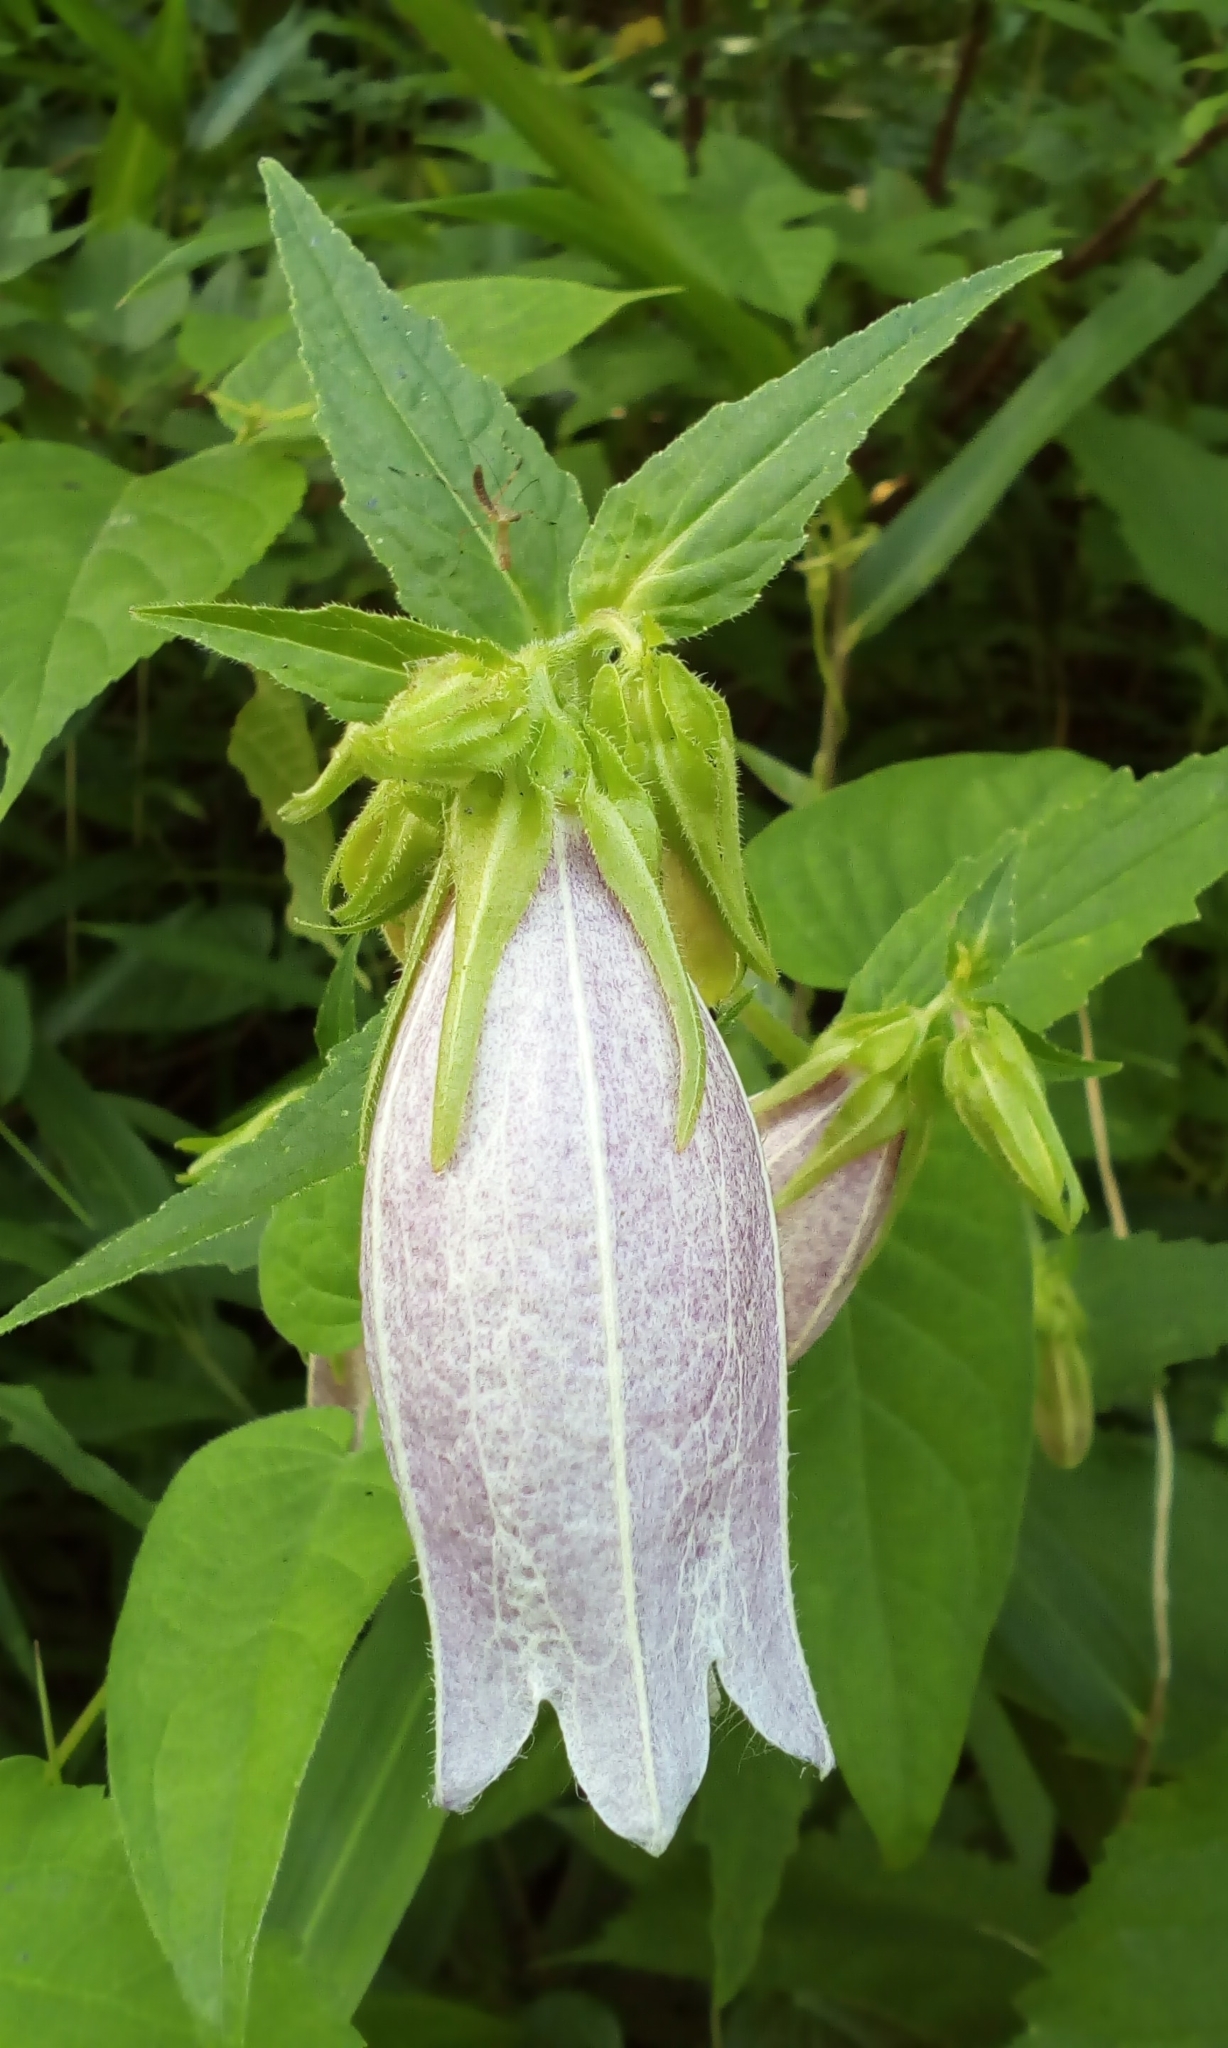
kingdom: Plantae
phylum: Tracheophyta
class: Magnoliopsida
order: Asterales
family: Campanulaceae
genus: Campanula
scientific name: Campanula punctata
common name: Spotted bellflower
